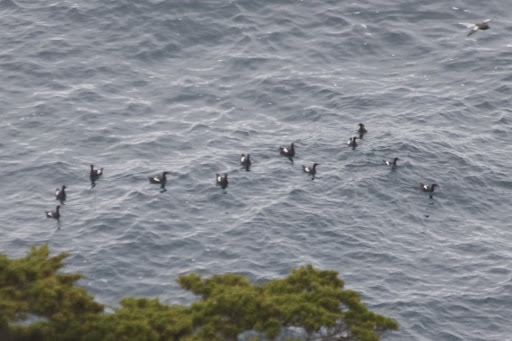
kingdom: Animalia
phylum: Chordata
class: Aves
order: Charadriiformes
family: Alcidae
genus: Cepphus
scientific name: Cepphus columba
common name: Pigeon guillemot
